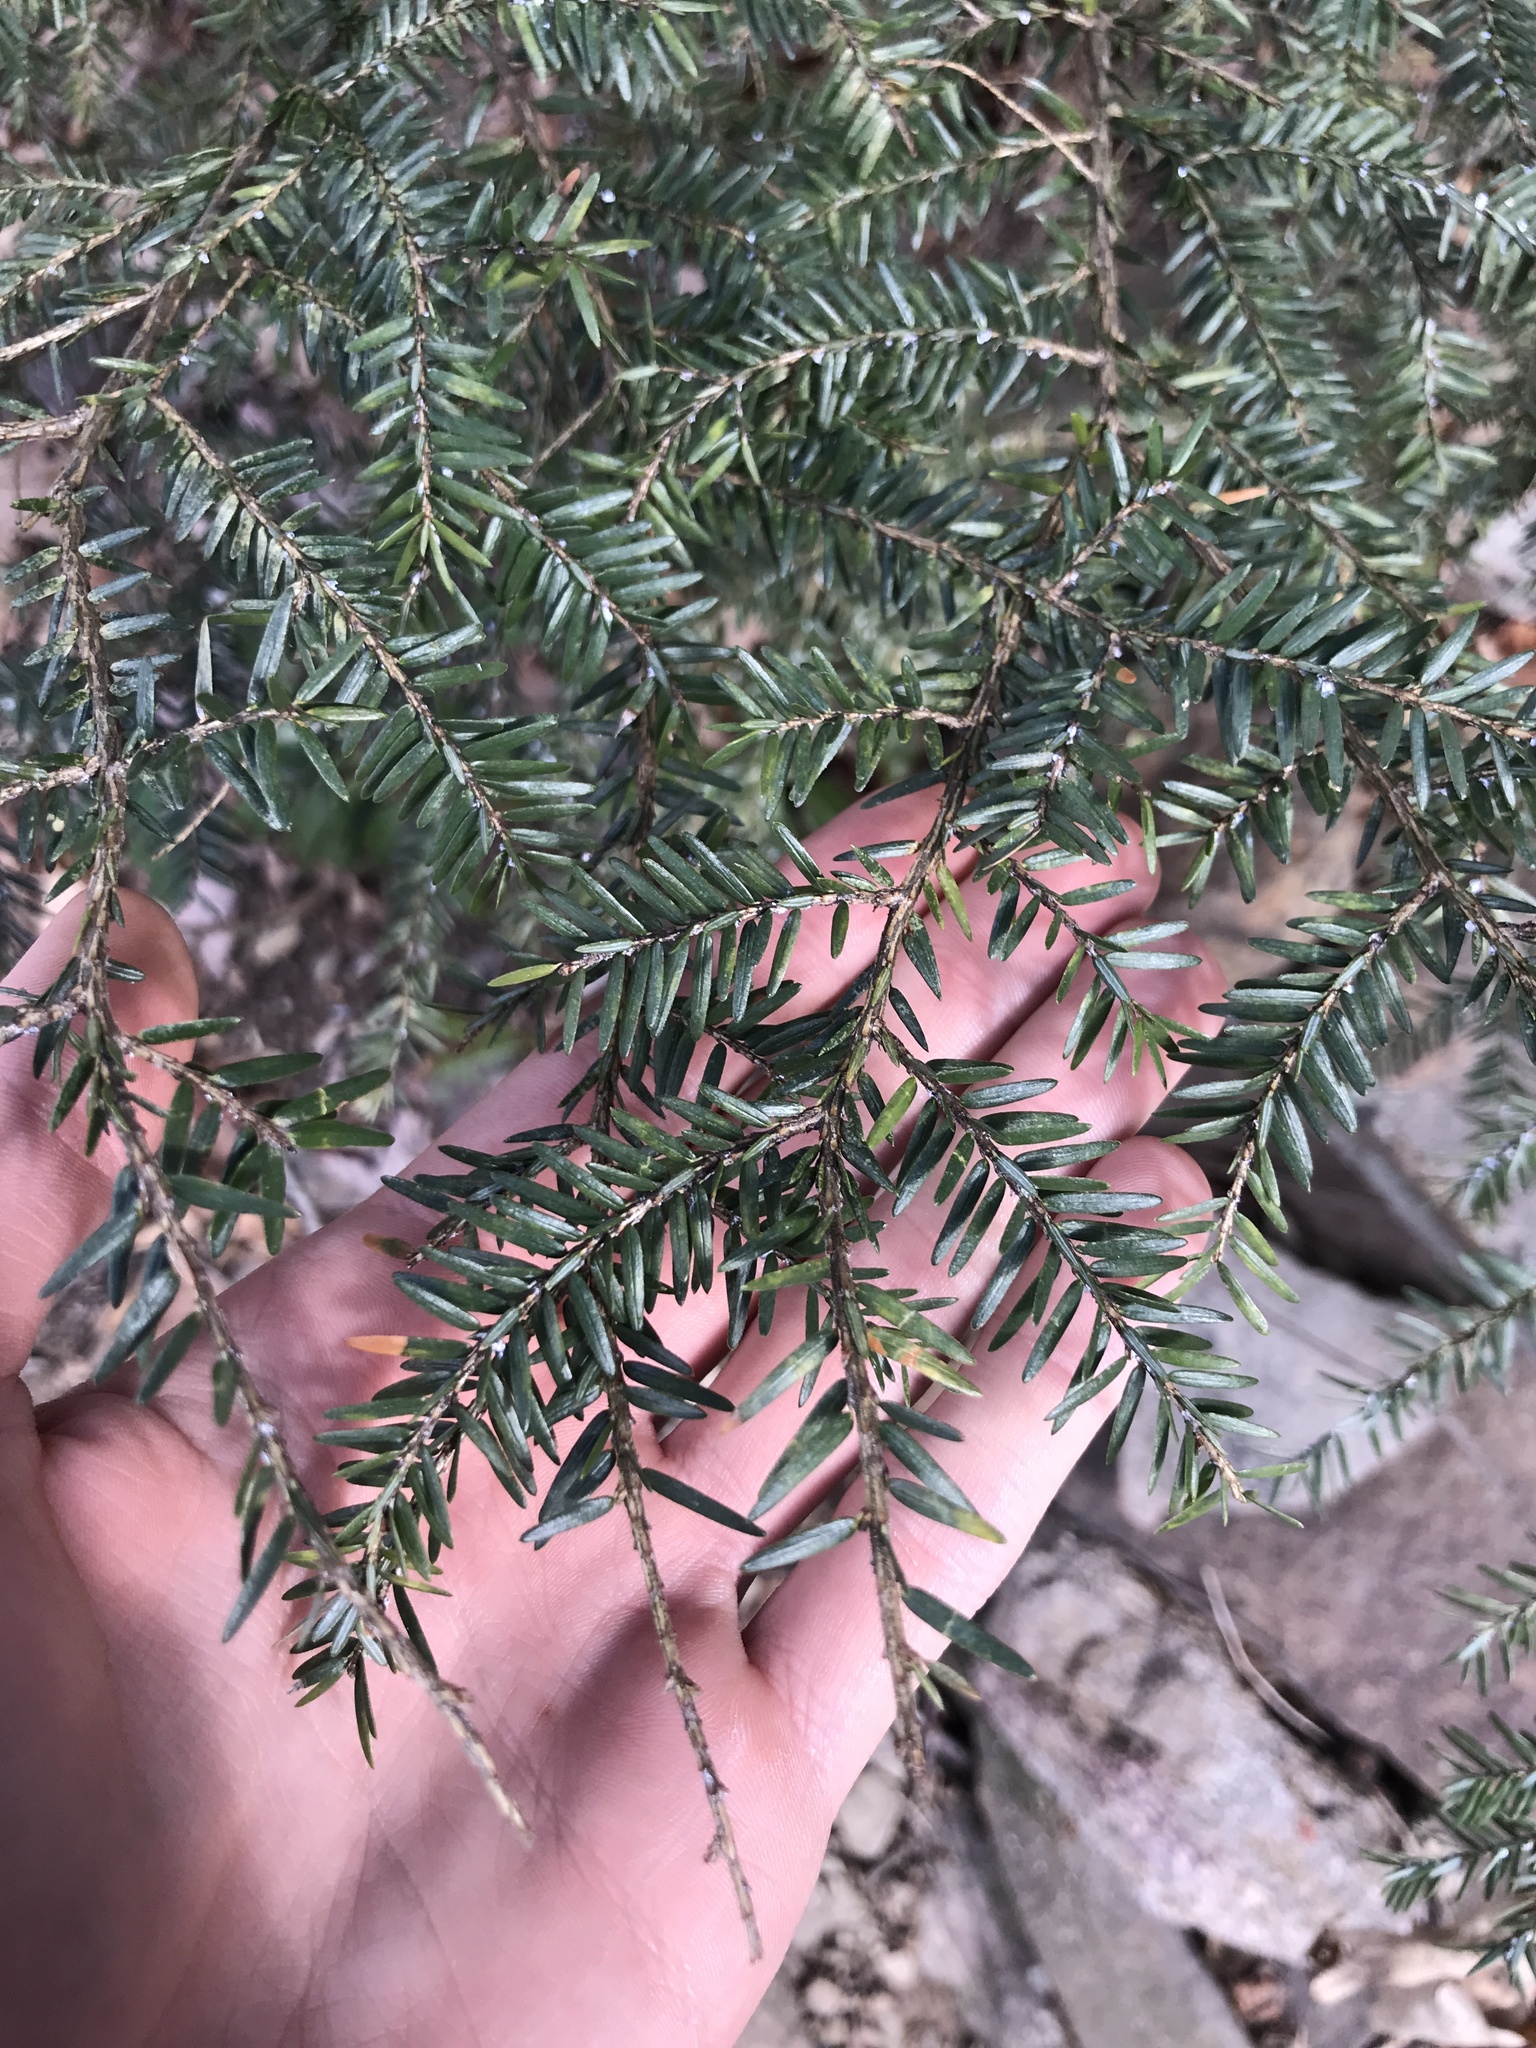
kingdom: Plantae
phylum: Tracheophyta
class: Pinopsida
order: Pinales
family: Pinaceae
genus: Tsuga
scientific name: Tsuga canadensis
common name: Eastern hemlock
